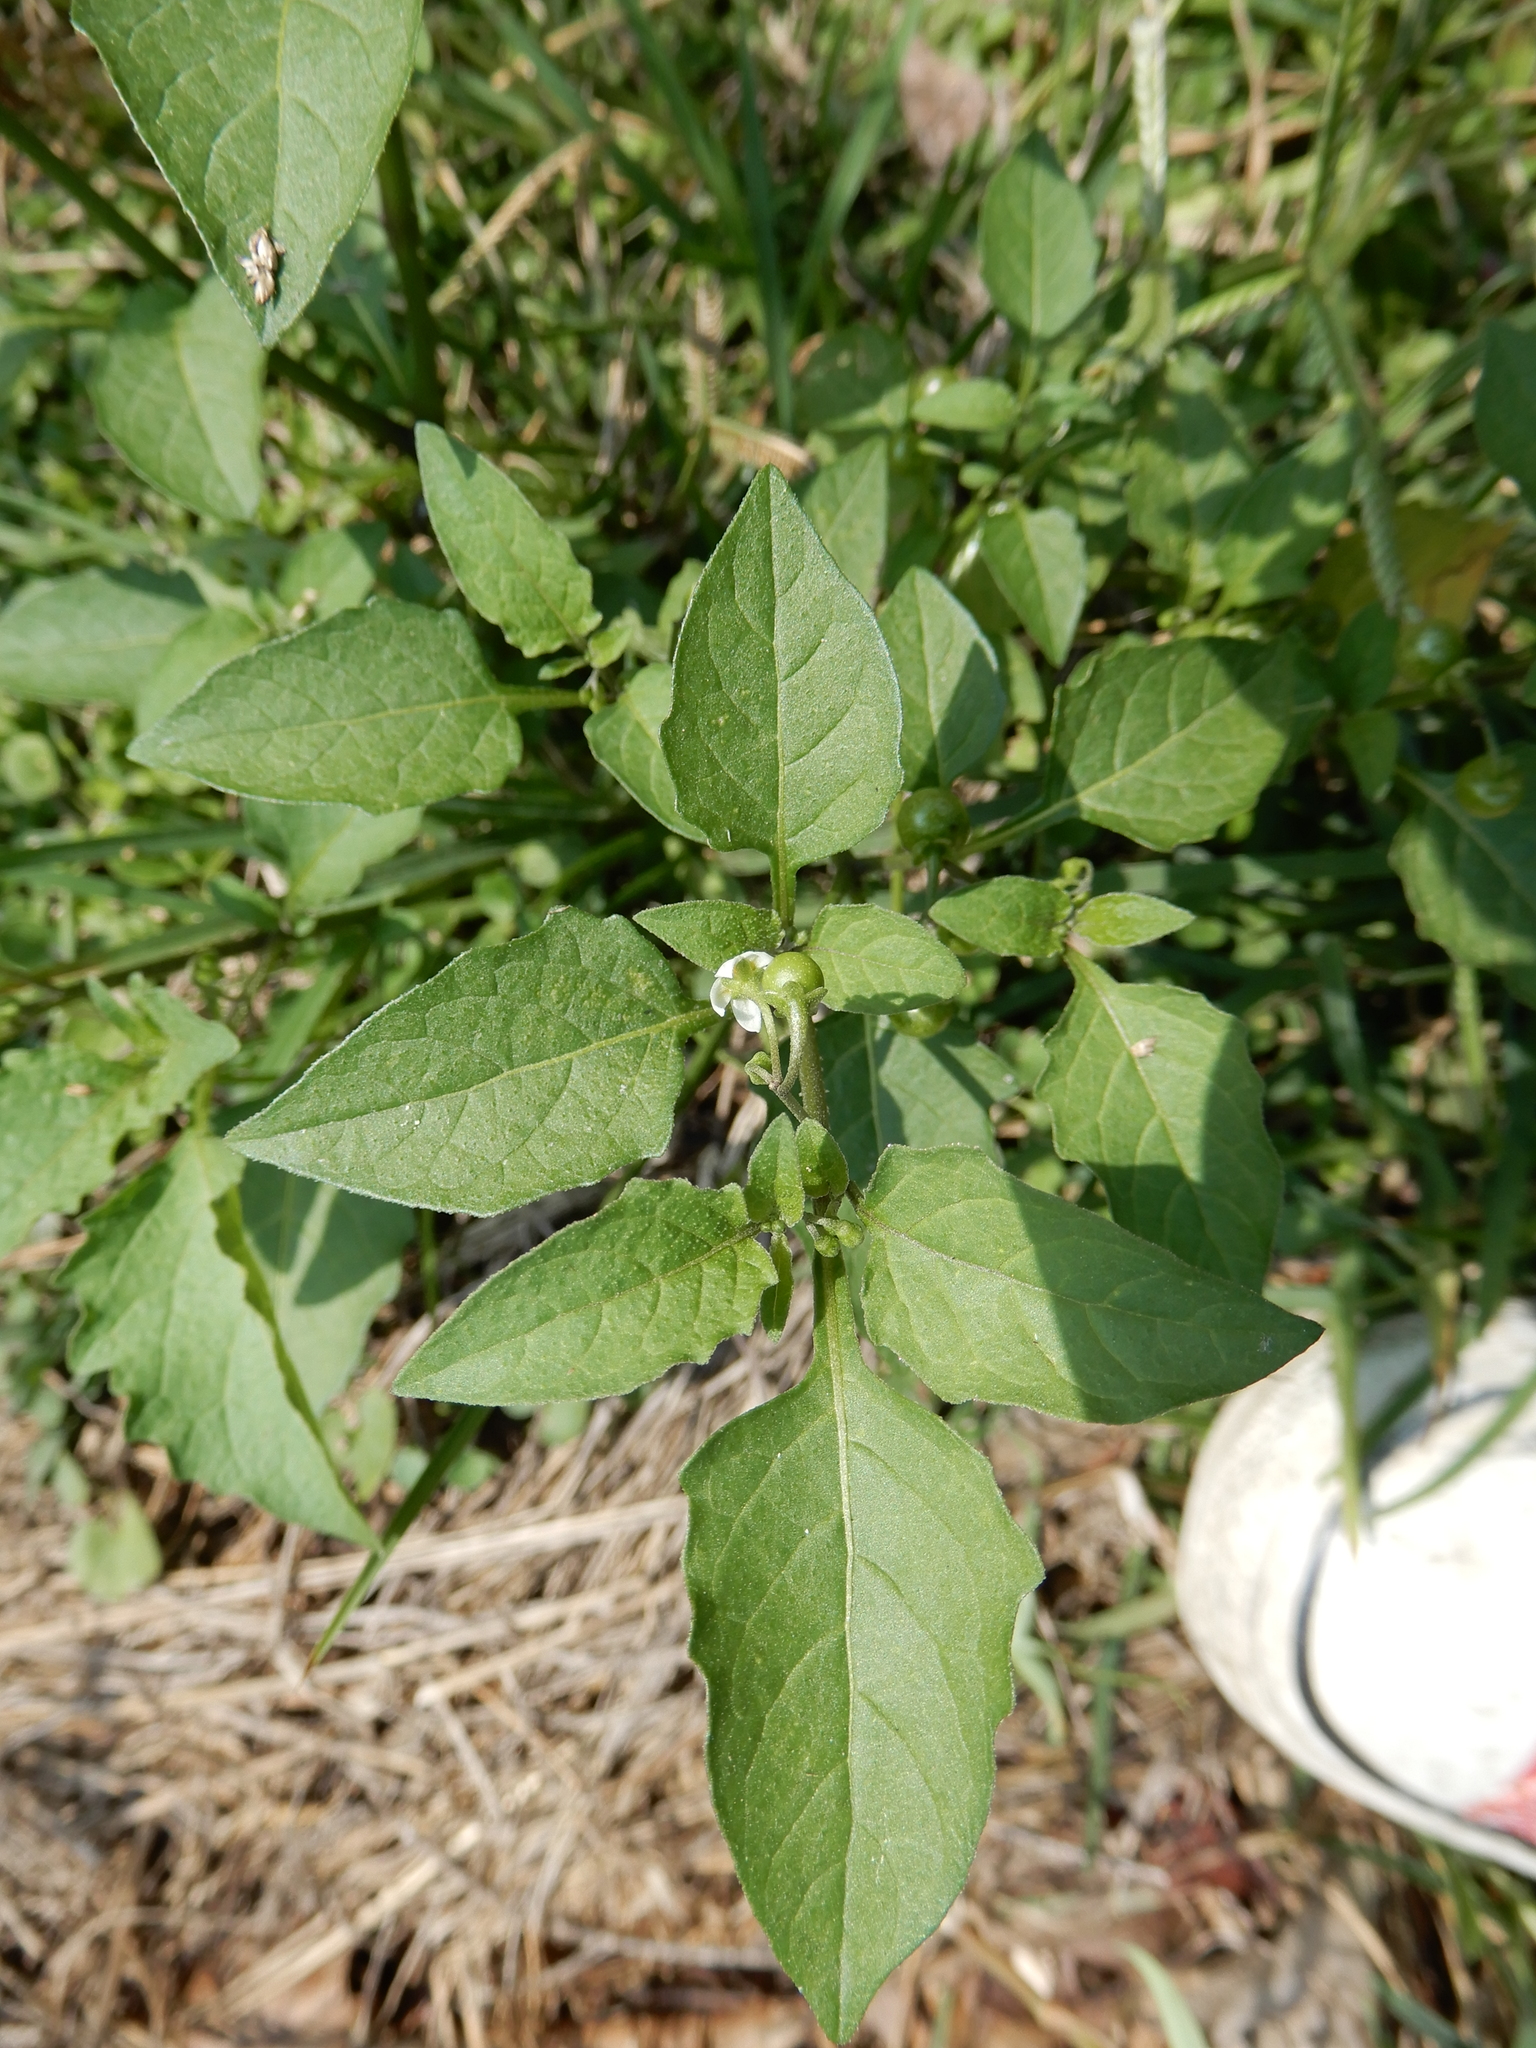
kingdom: Plantae
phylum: Tracheophyta
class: Magnoliopsida
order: Solanales
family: Solanaceae
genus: Solanum
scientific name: Solanum americanum
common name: American black nightshade
